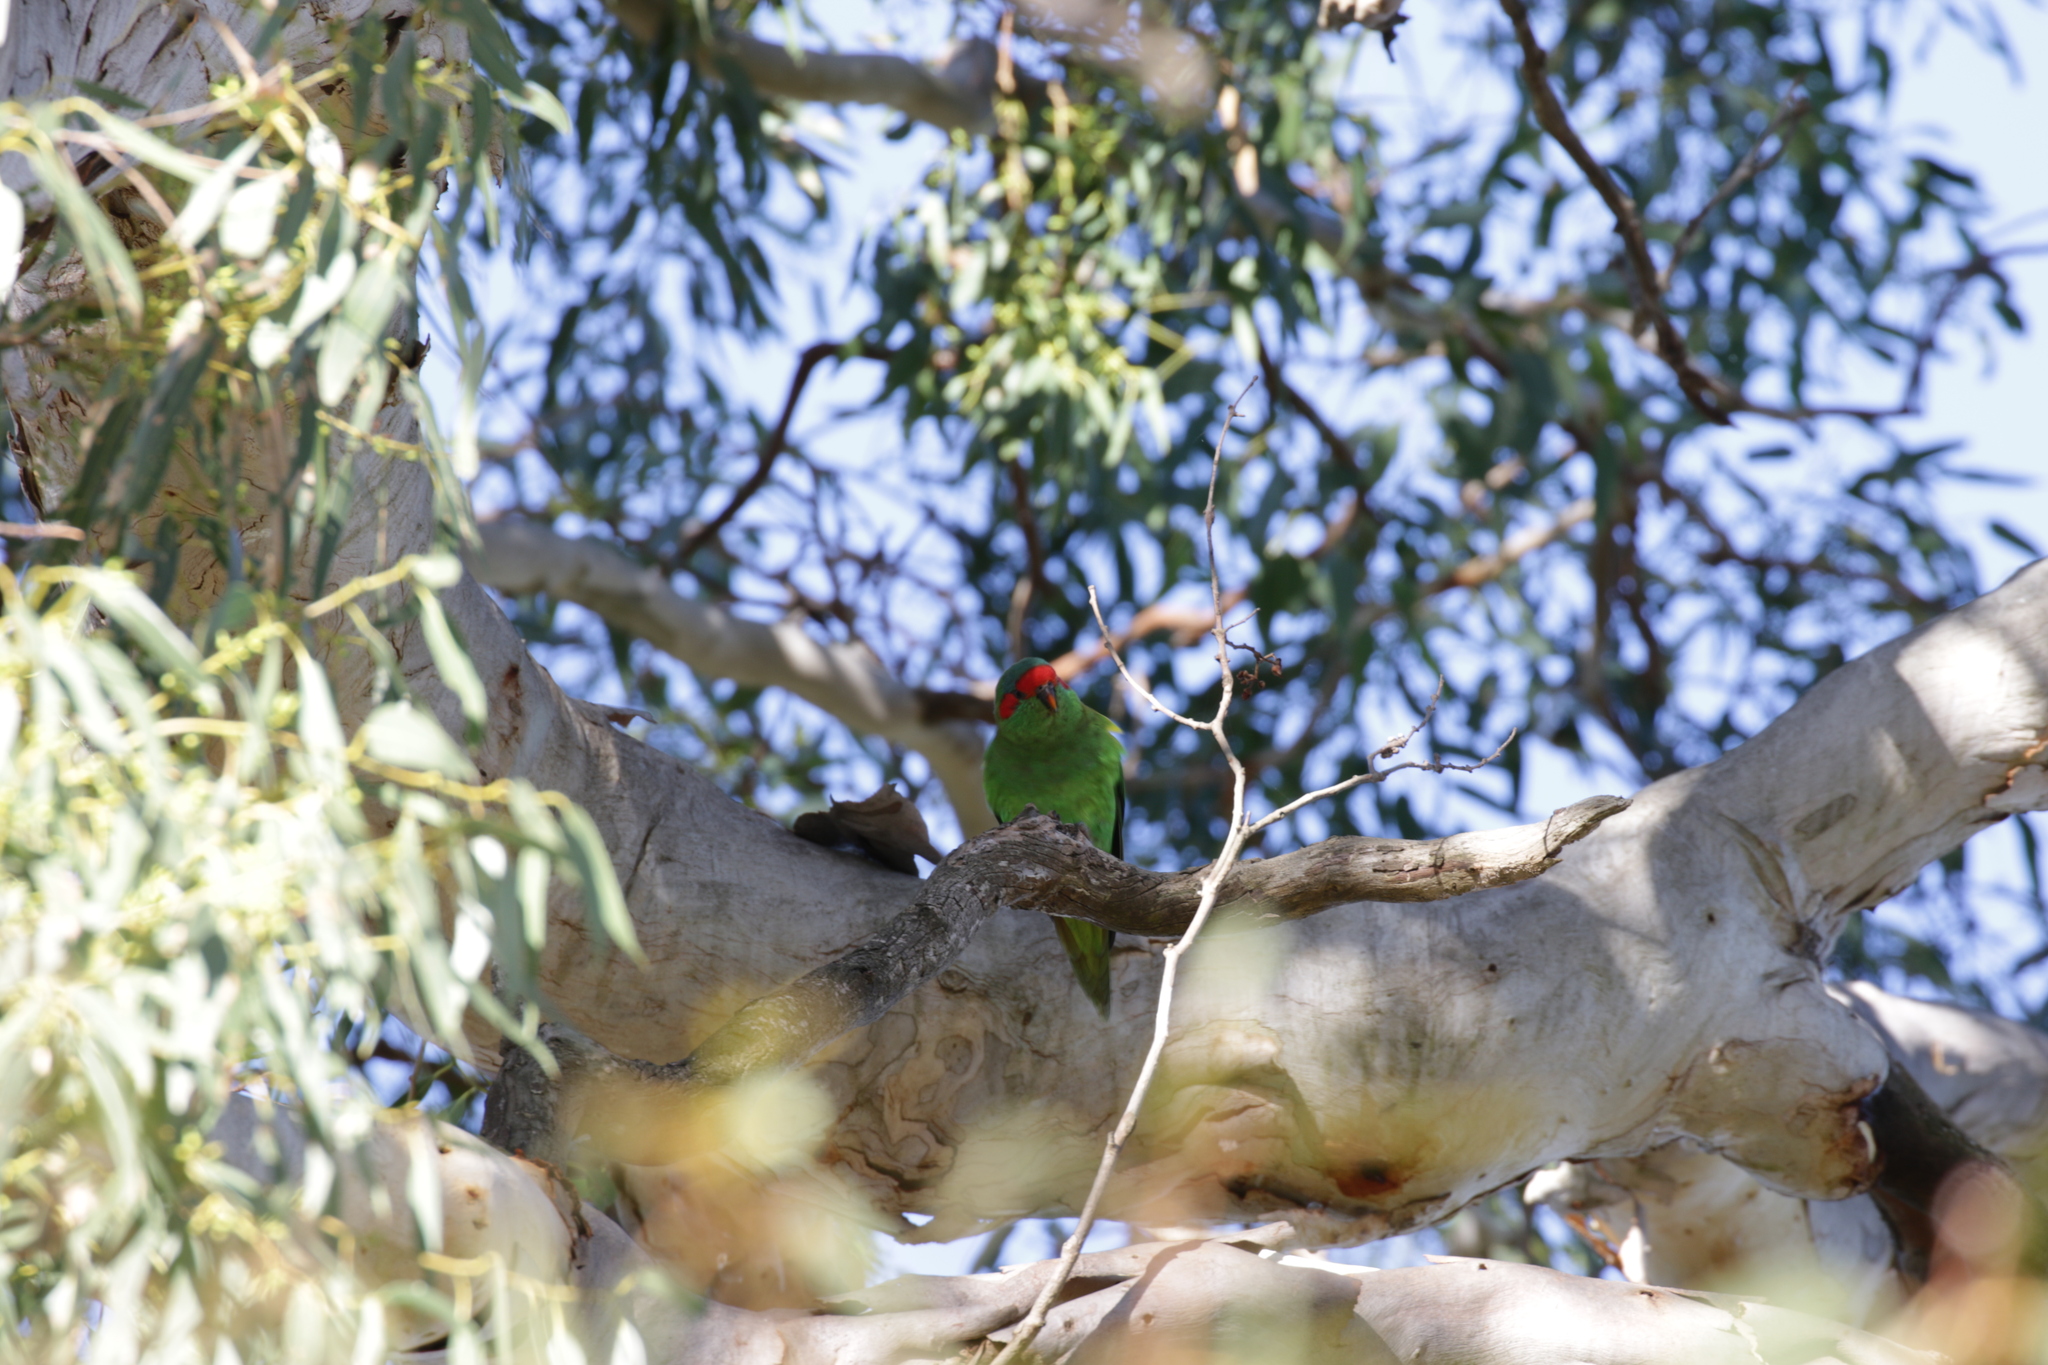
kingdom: Animalia
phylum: Chordata
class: Aves
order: Psittaciformes
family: Psittacidae
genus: Glossopsitta
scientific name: Glossopsitta concinna
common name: Musk lorikeet
